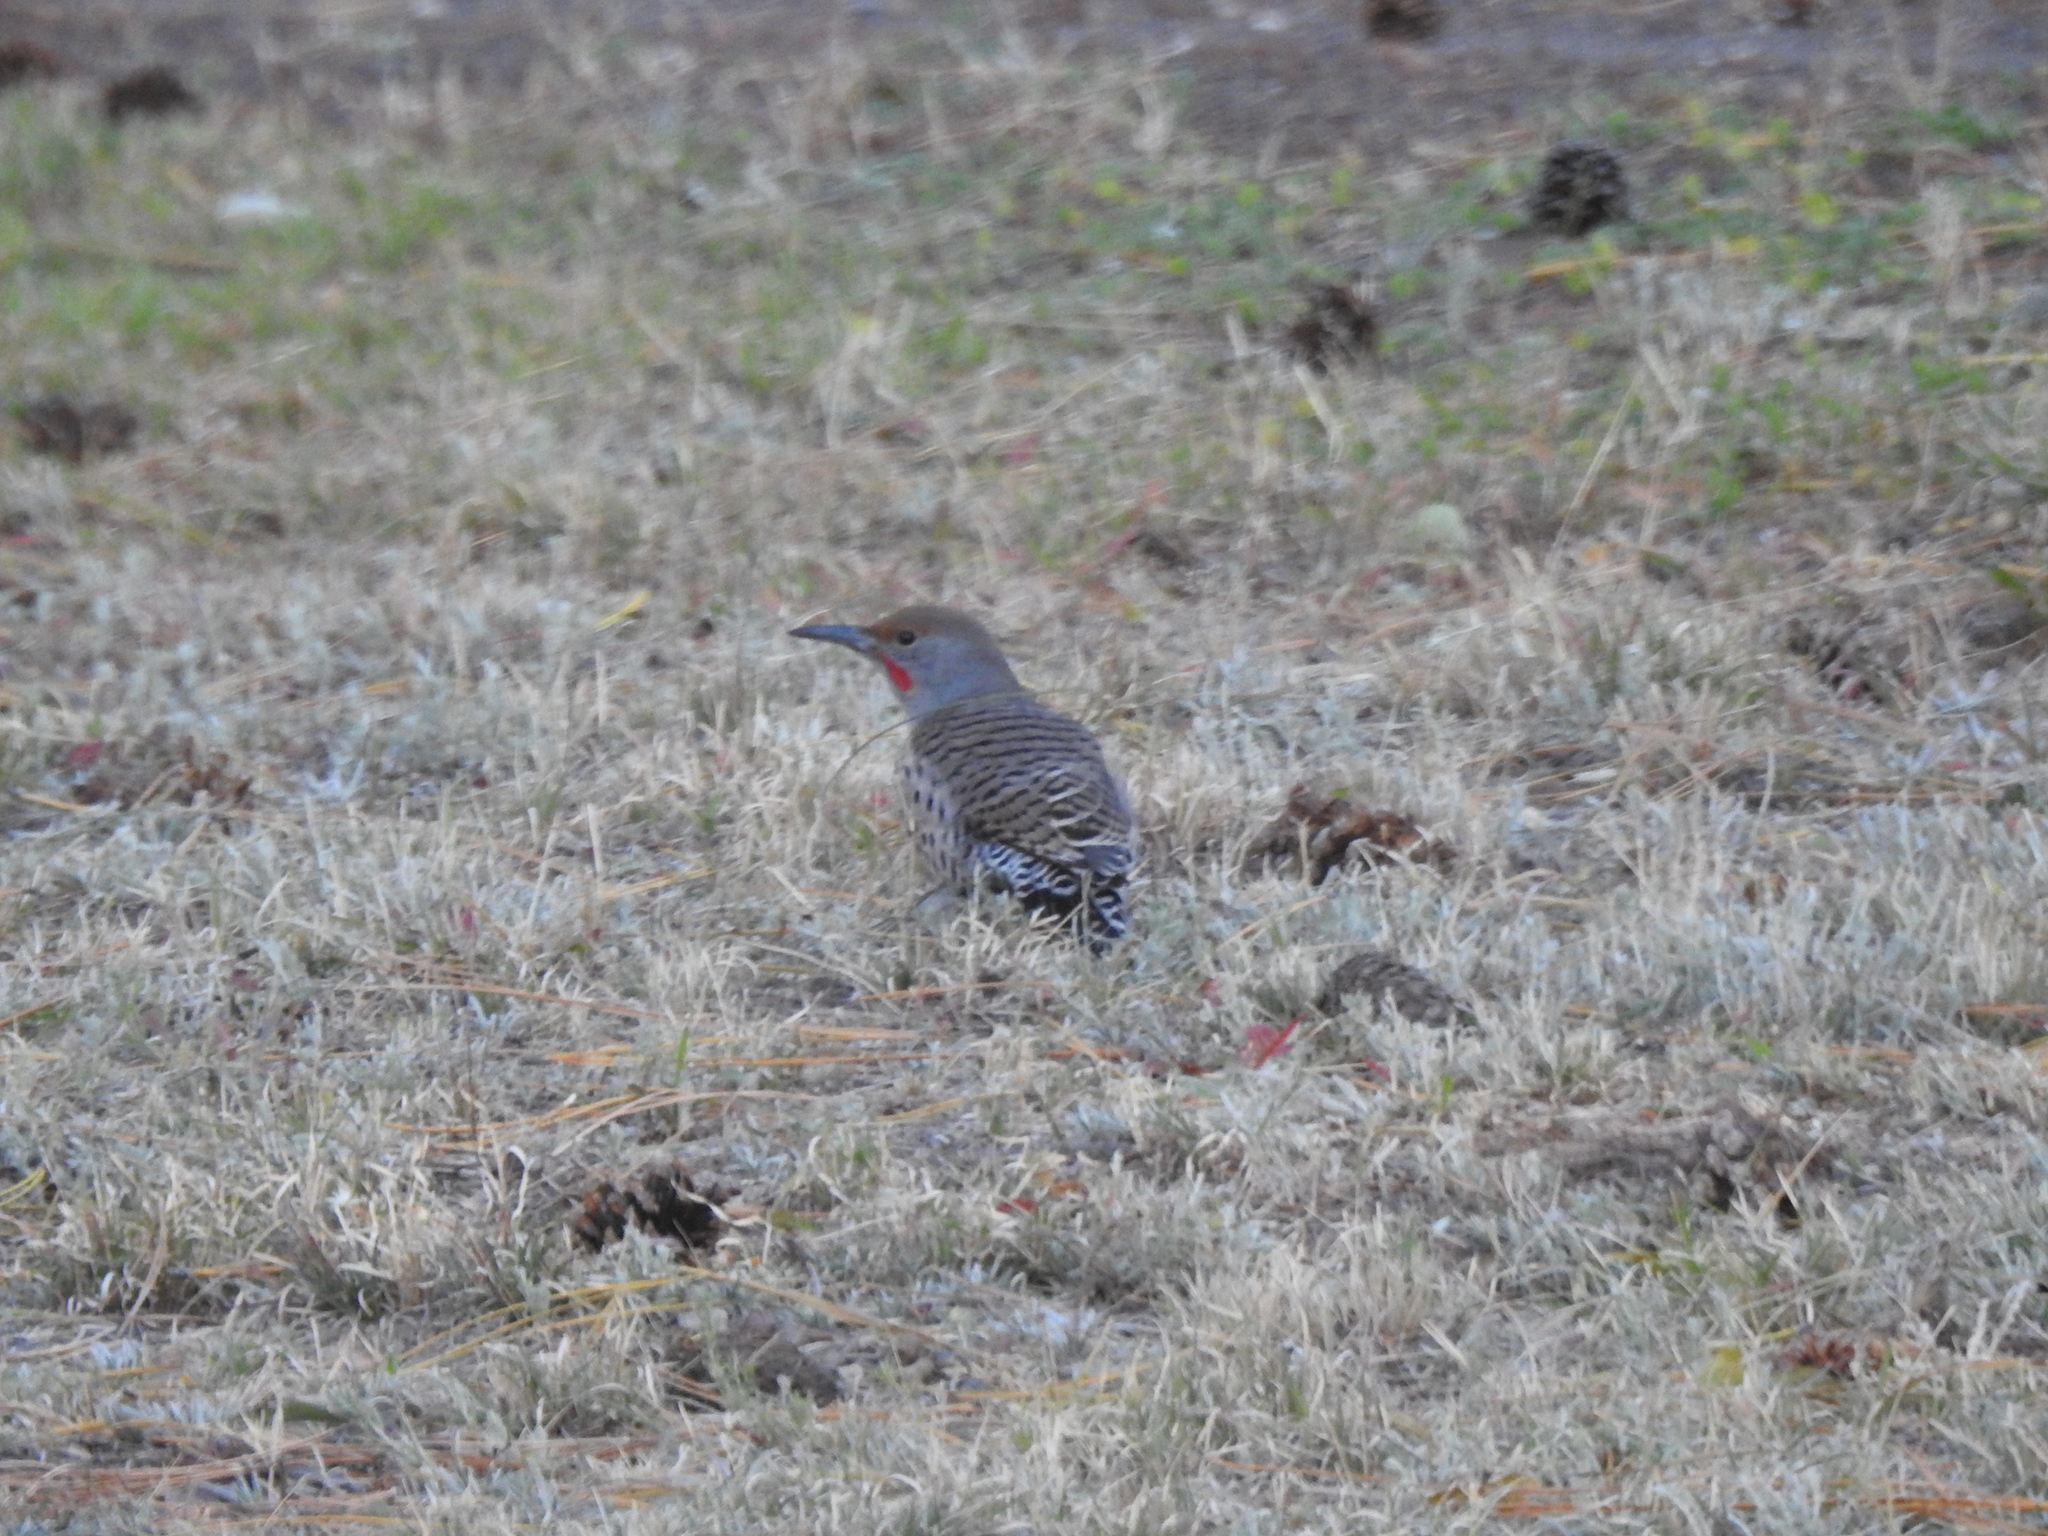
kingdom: Animalia
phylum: Chordata
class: Aves
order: Piciformes
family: Picidae
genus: Colaptes
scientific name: Colaptes auratus
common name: Northern flicker
